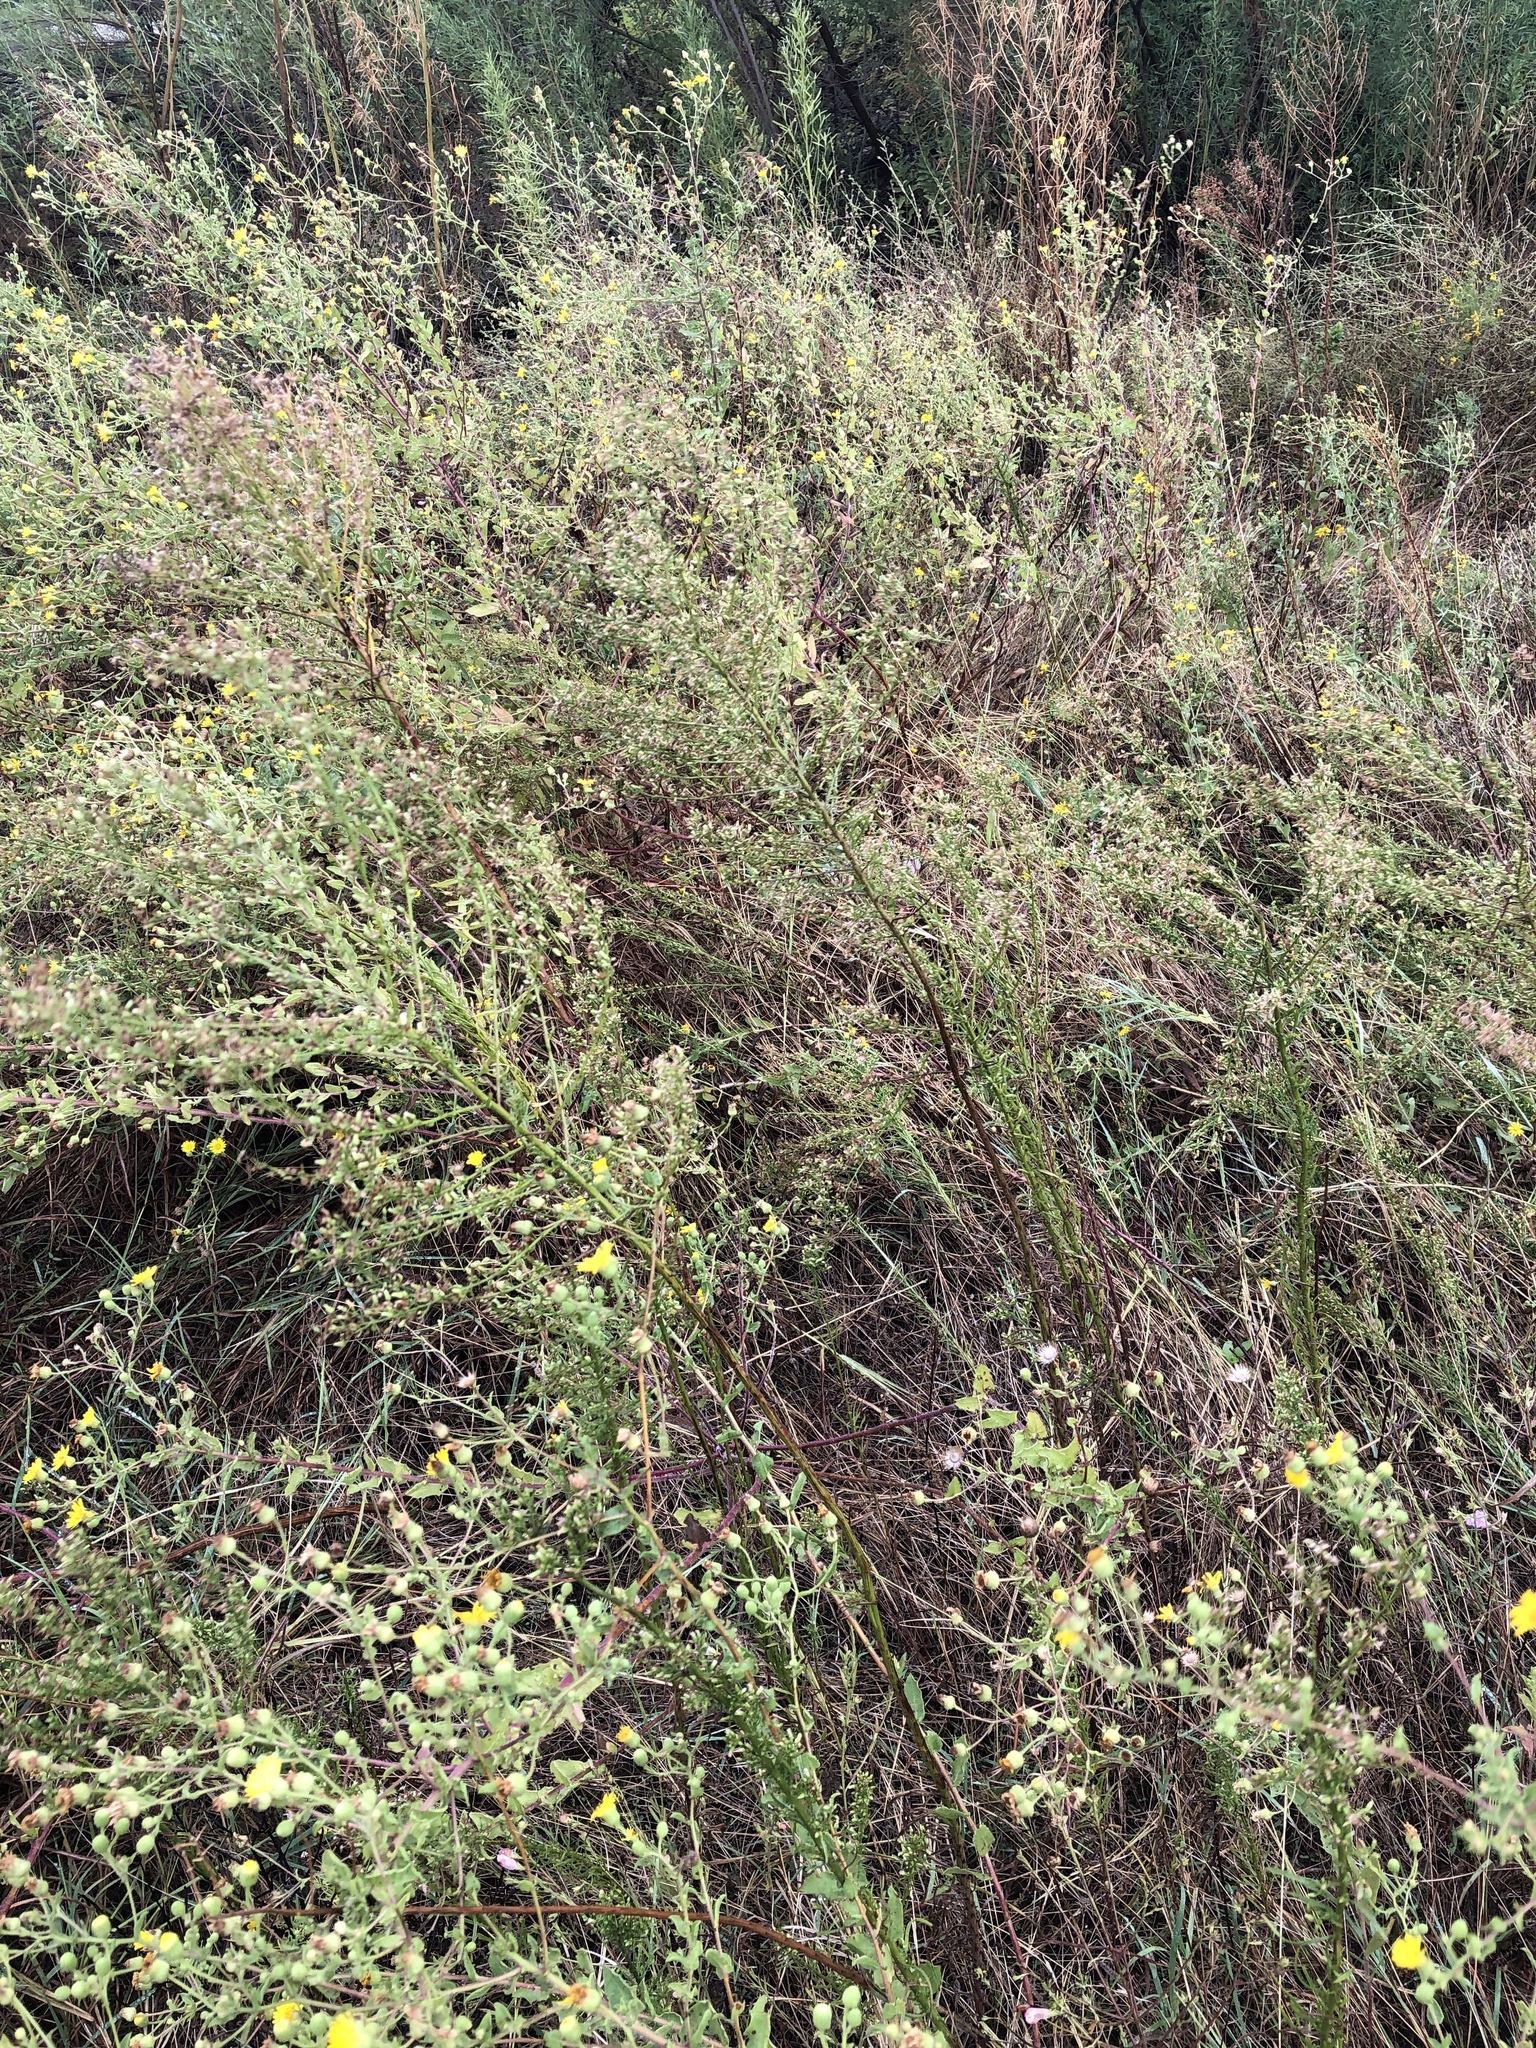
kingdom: Plantae
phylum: Tracheophyta
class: Magnoliopsida
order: Asterales
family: Asteraceae
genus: Erigeron
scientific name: Erigeron canadensis
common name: Canadian fleabane
